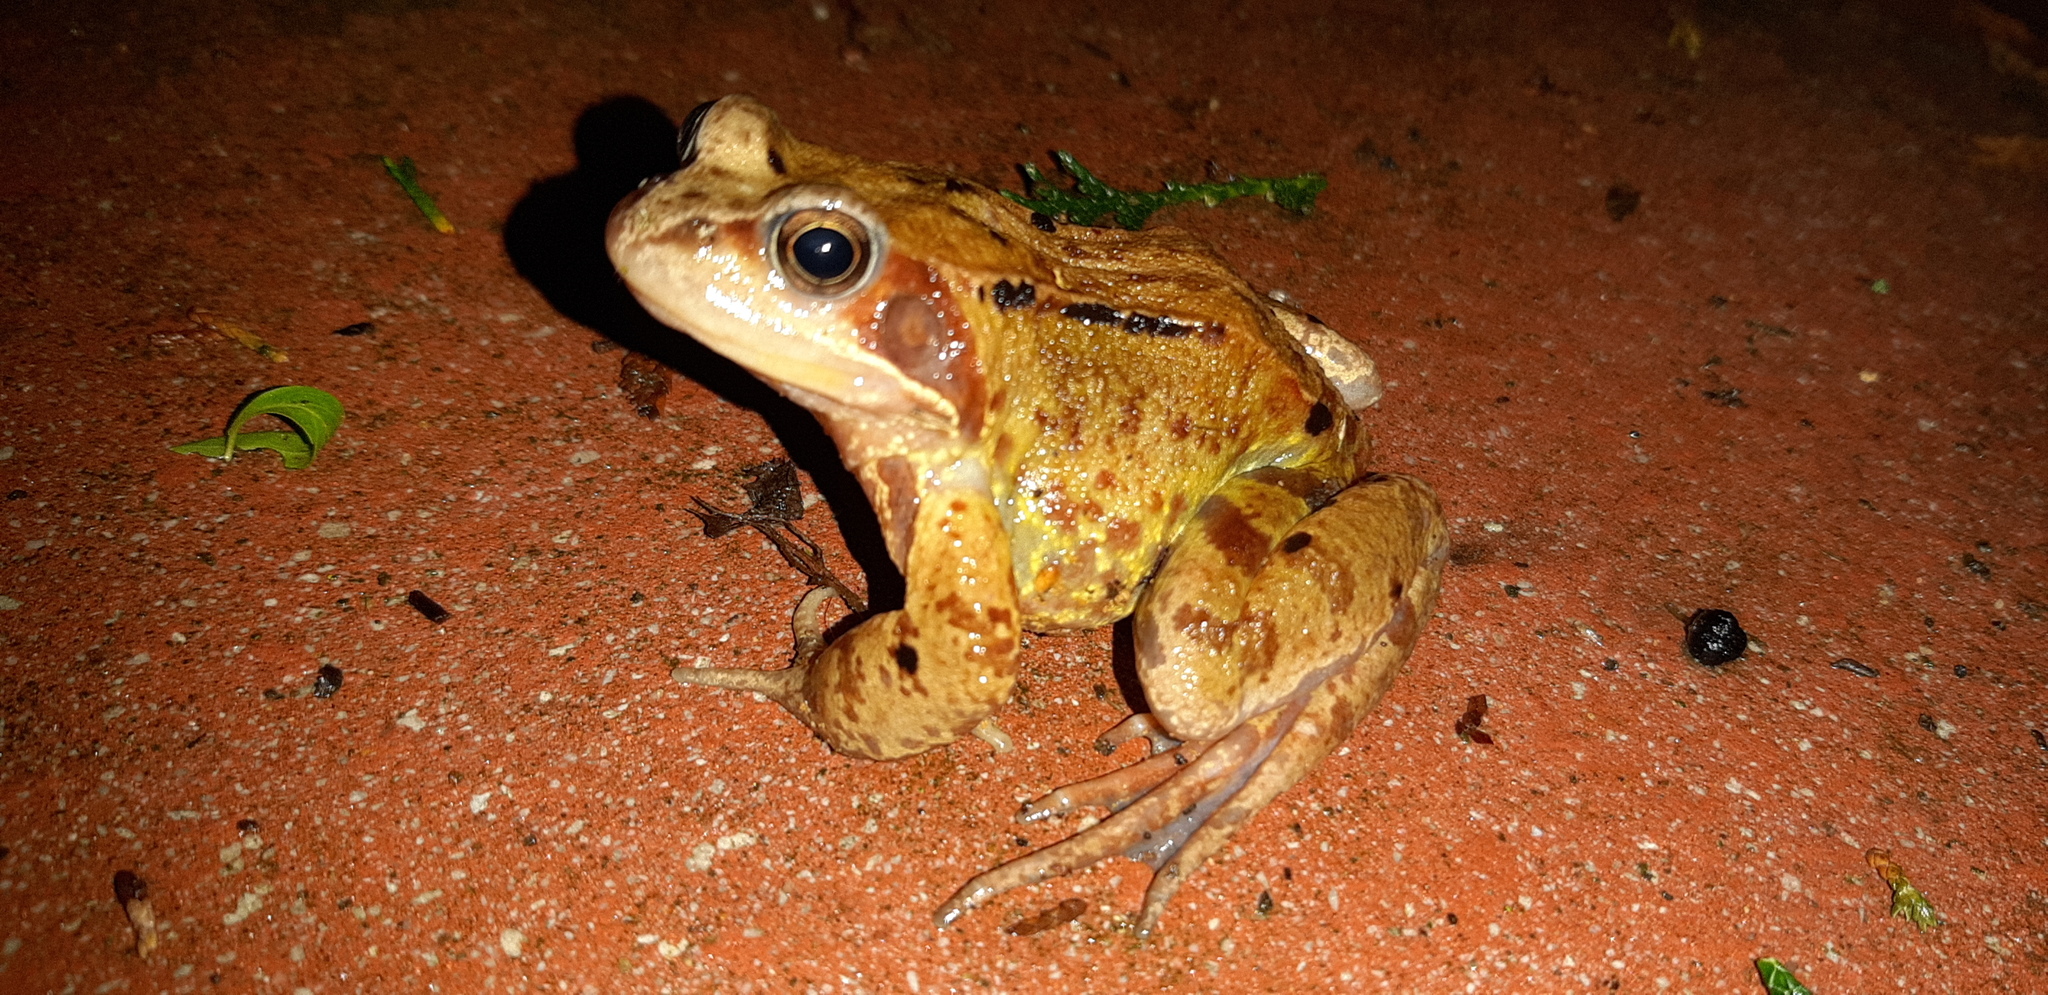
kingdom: Animalia
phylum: Chordata
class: Amphibia
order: Anura
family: Ranidae
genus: Rana
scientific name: Rana temporaria
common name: Common frog
